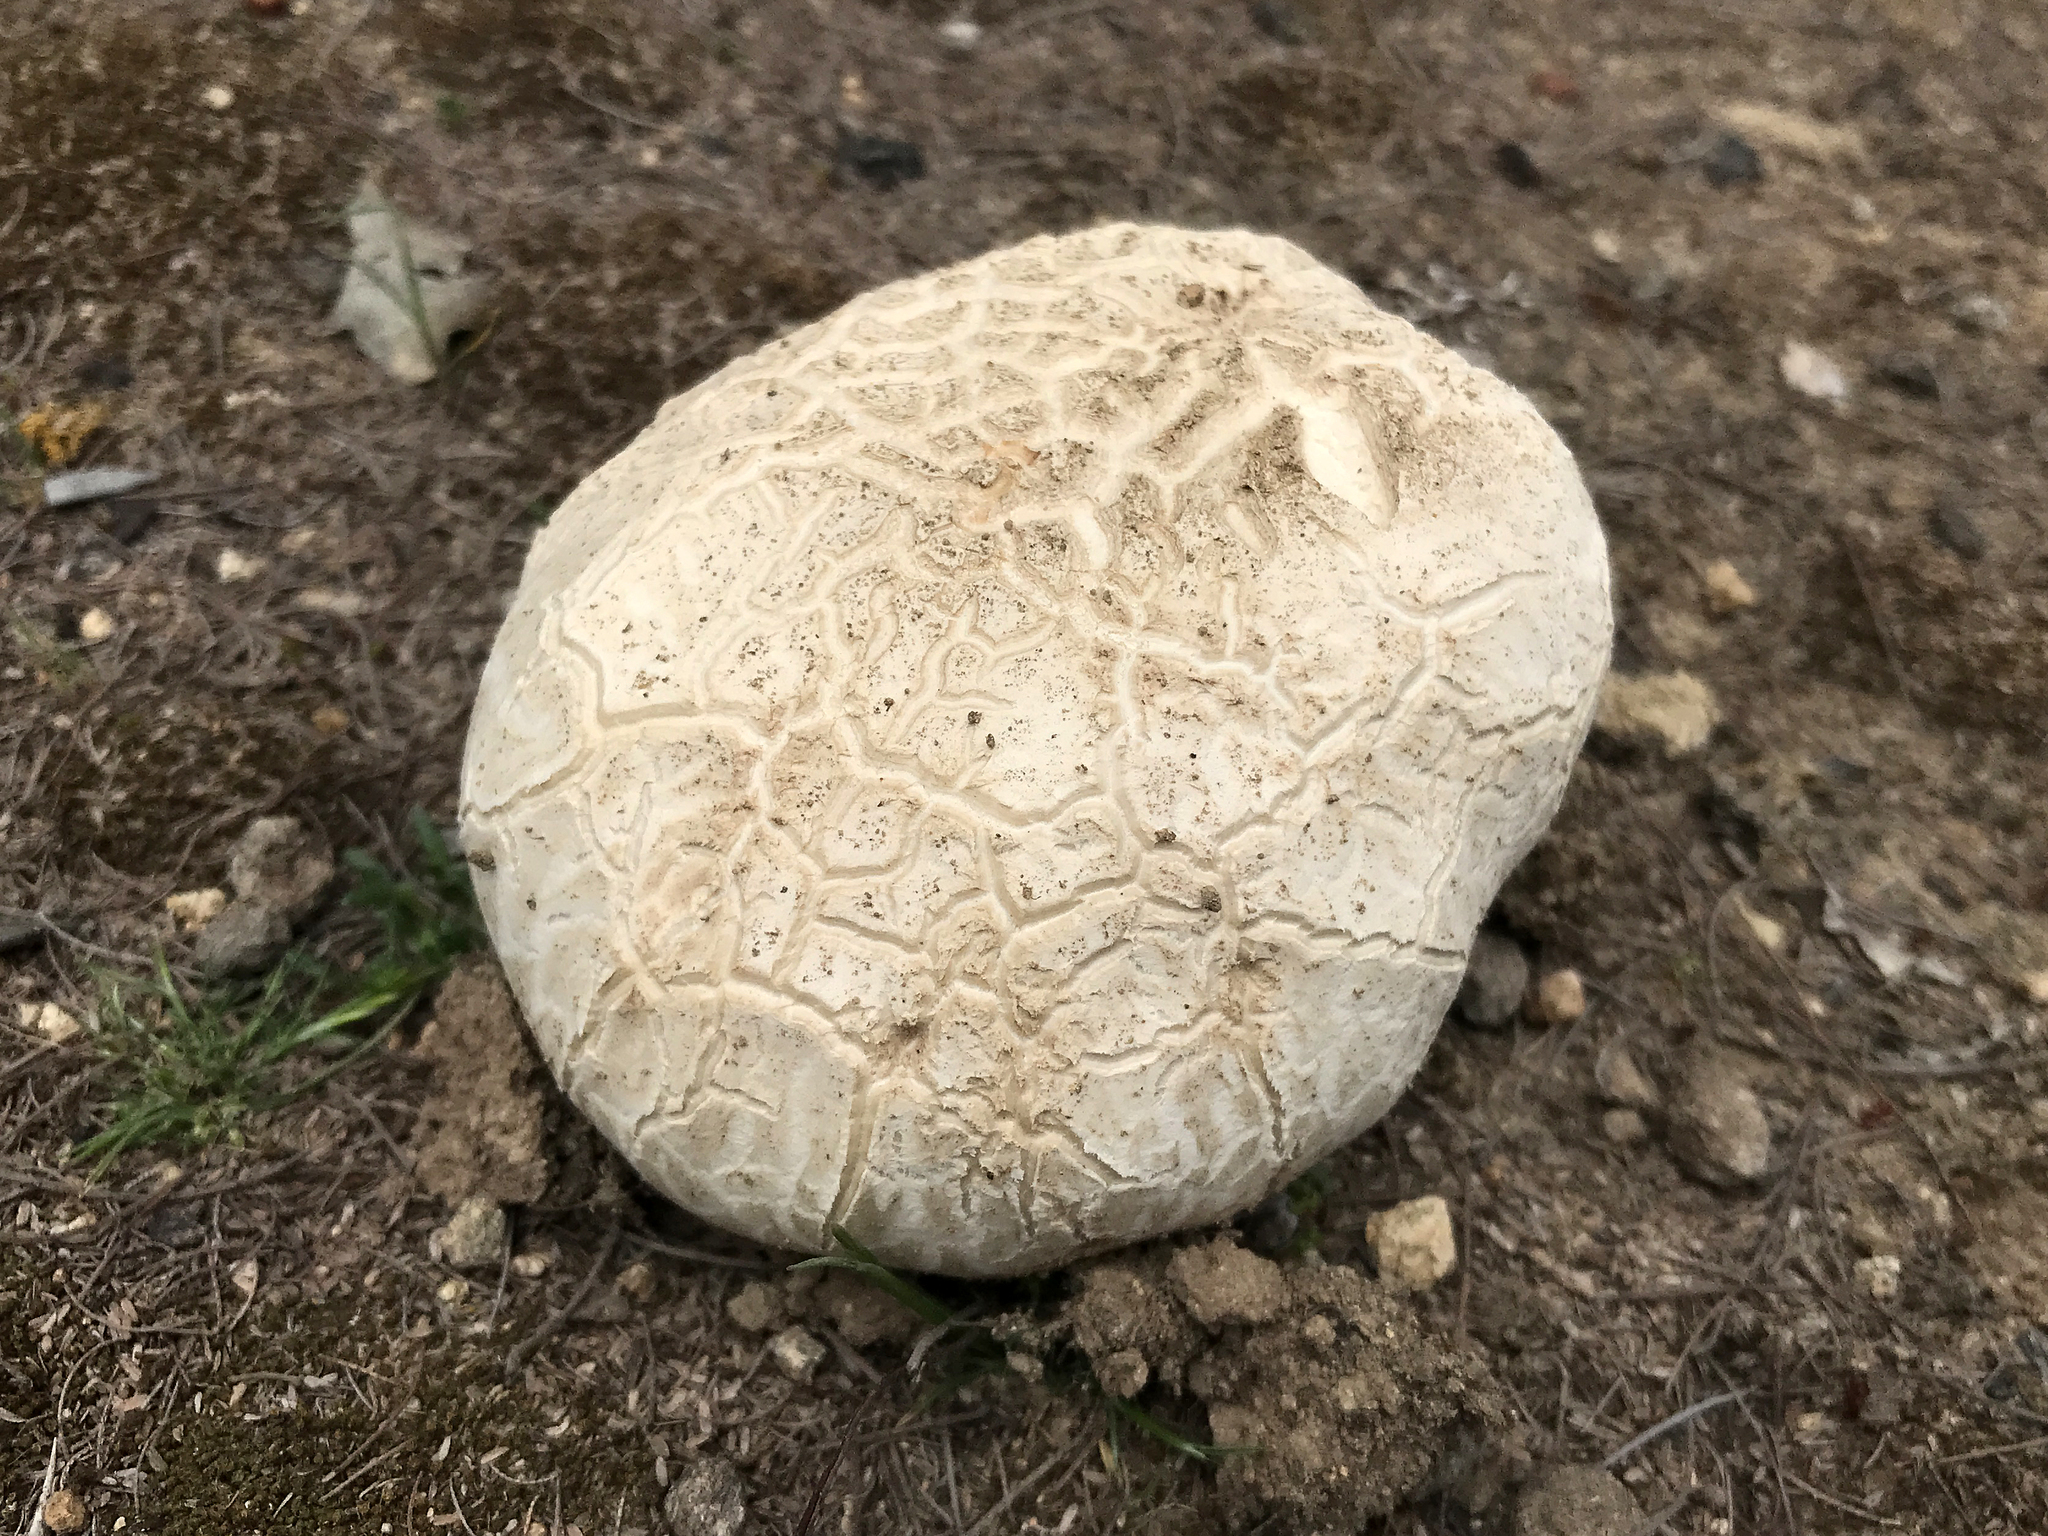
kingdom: Fungi
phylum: Basidiomycota
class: Agaricomycetes
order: Agaricales
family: Lycoperdaceae
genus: Bovistella
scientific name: Bovistella utriformis
